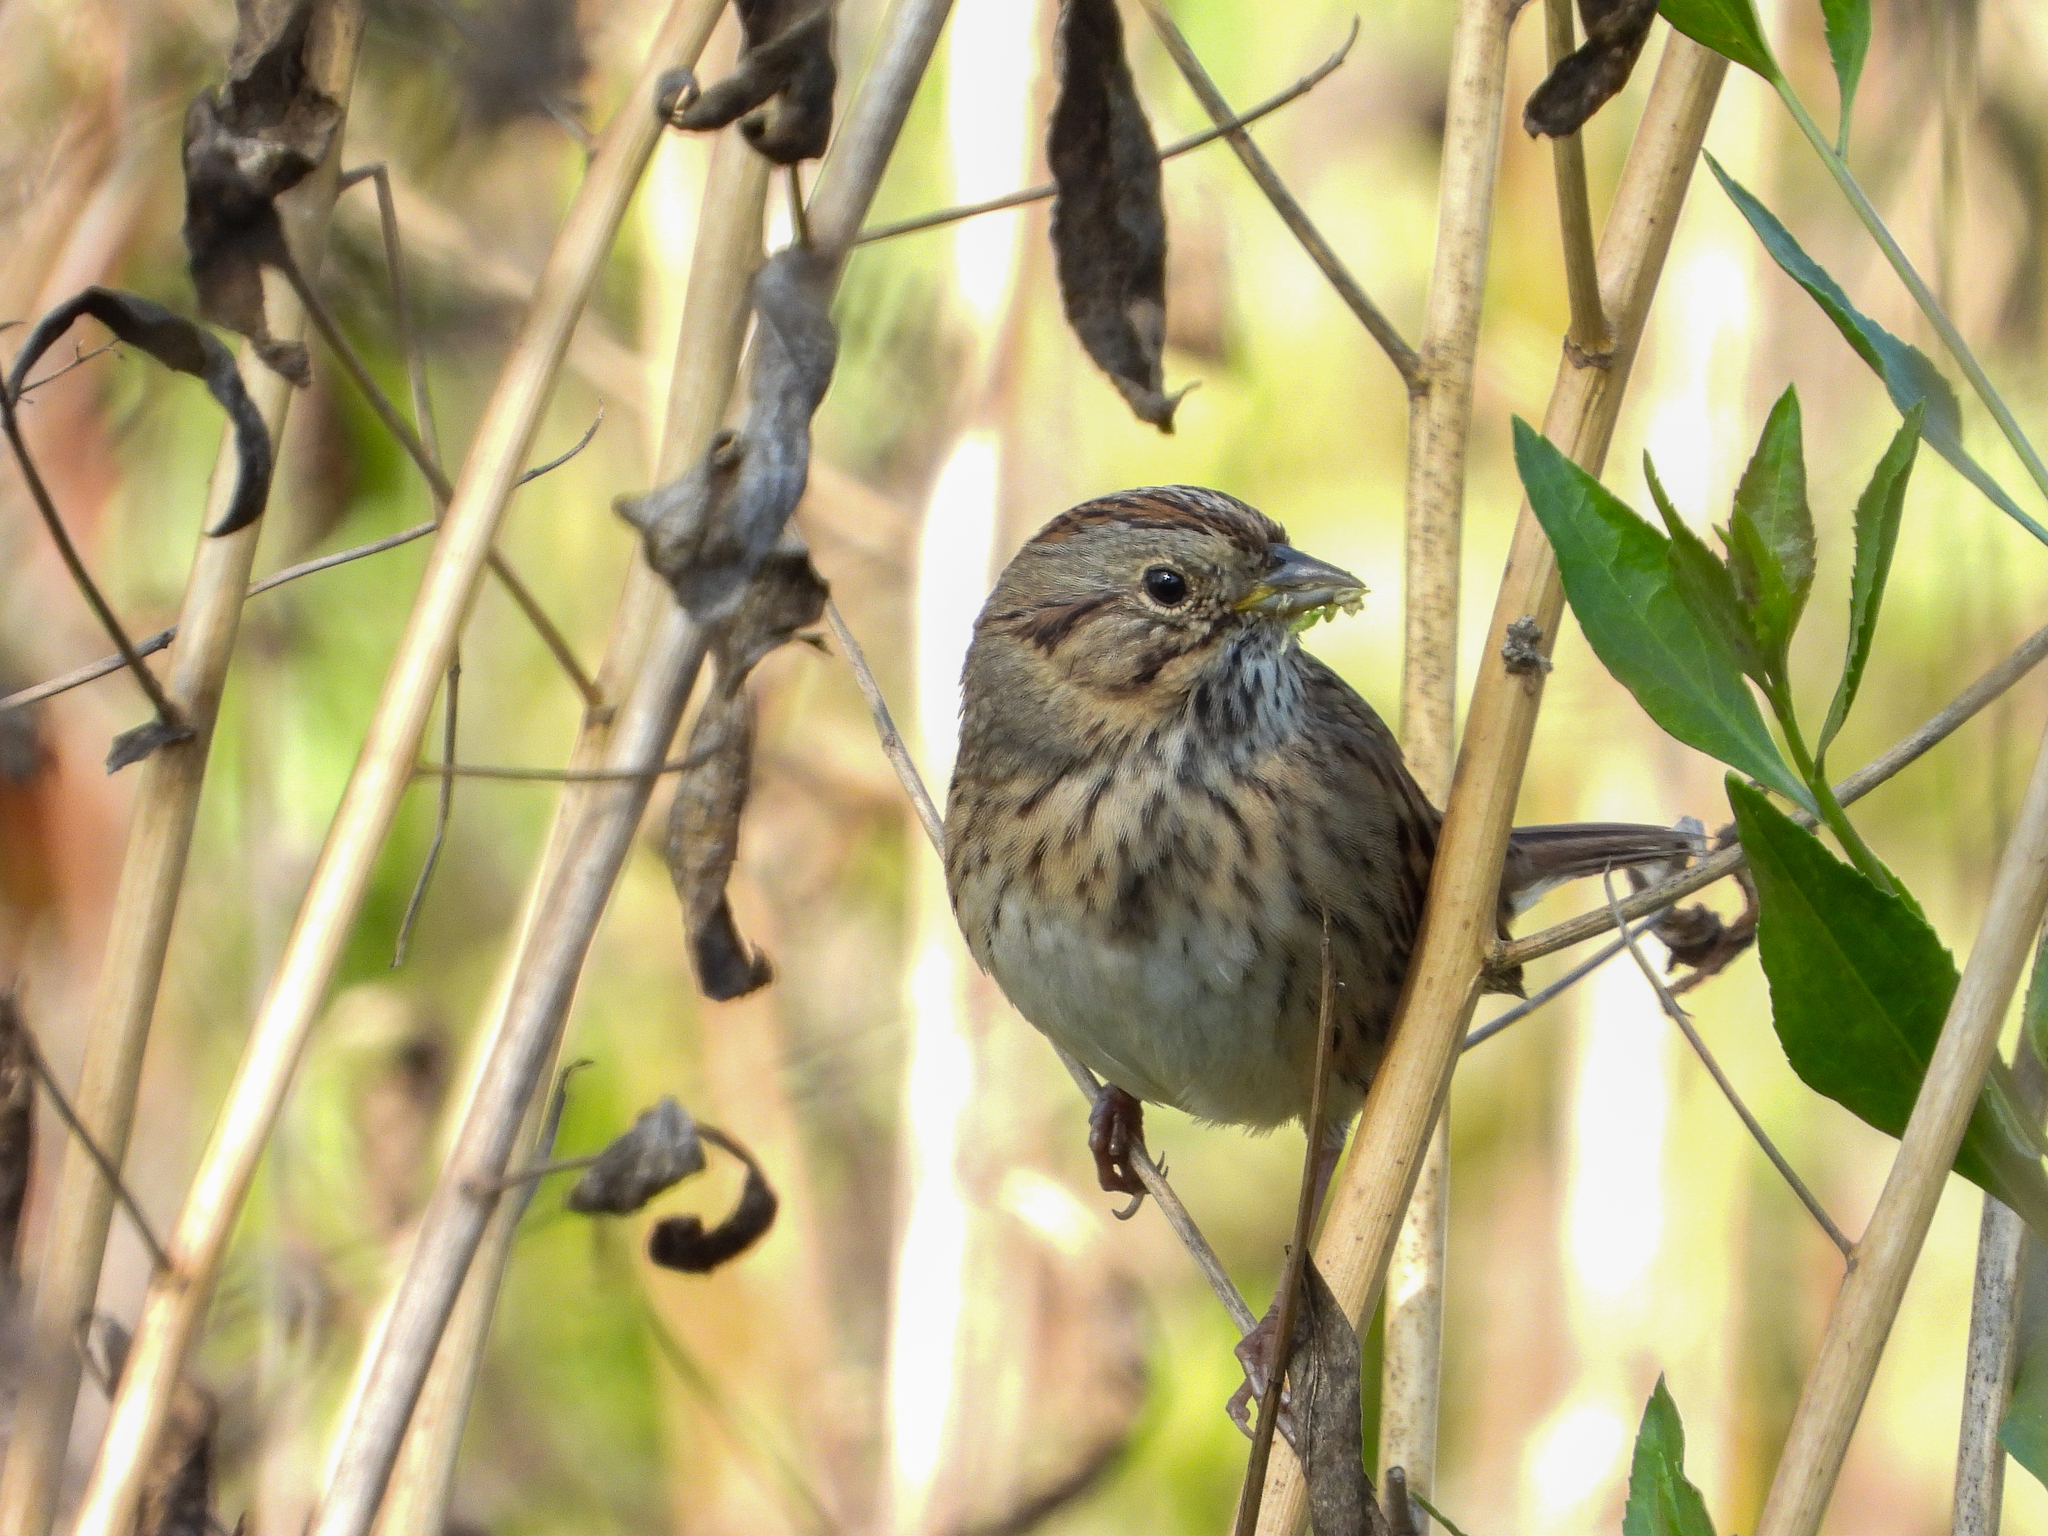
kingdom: Animalia
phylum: Chordata
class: Aves
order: Passeriformes
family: Passerellidae
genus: Melospiza
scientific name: Melospiza lincolnii
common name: Lincoln's sparrow
